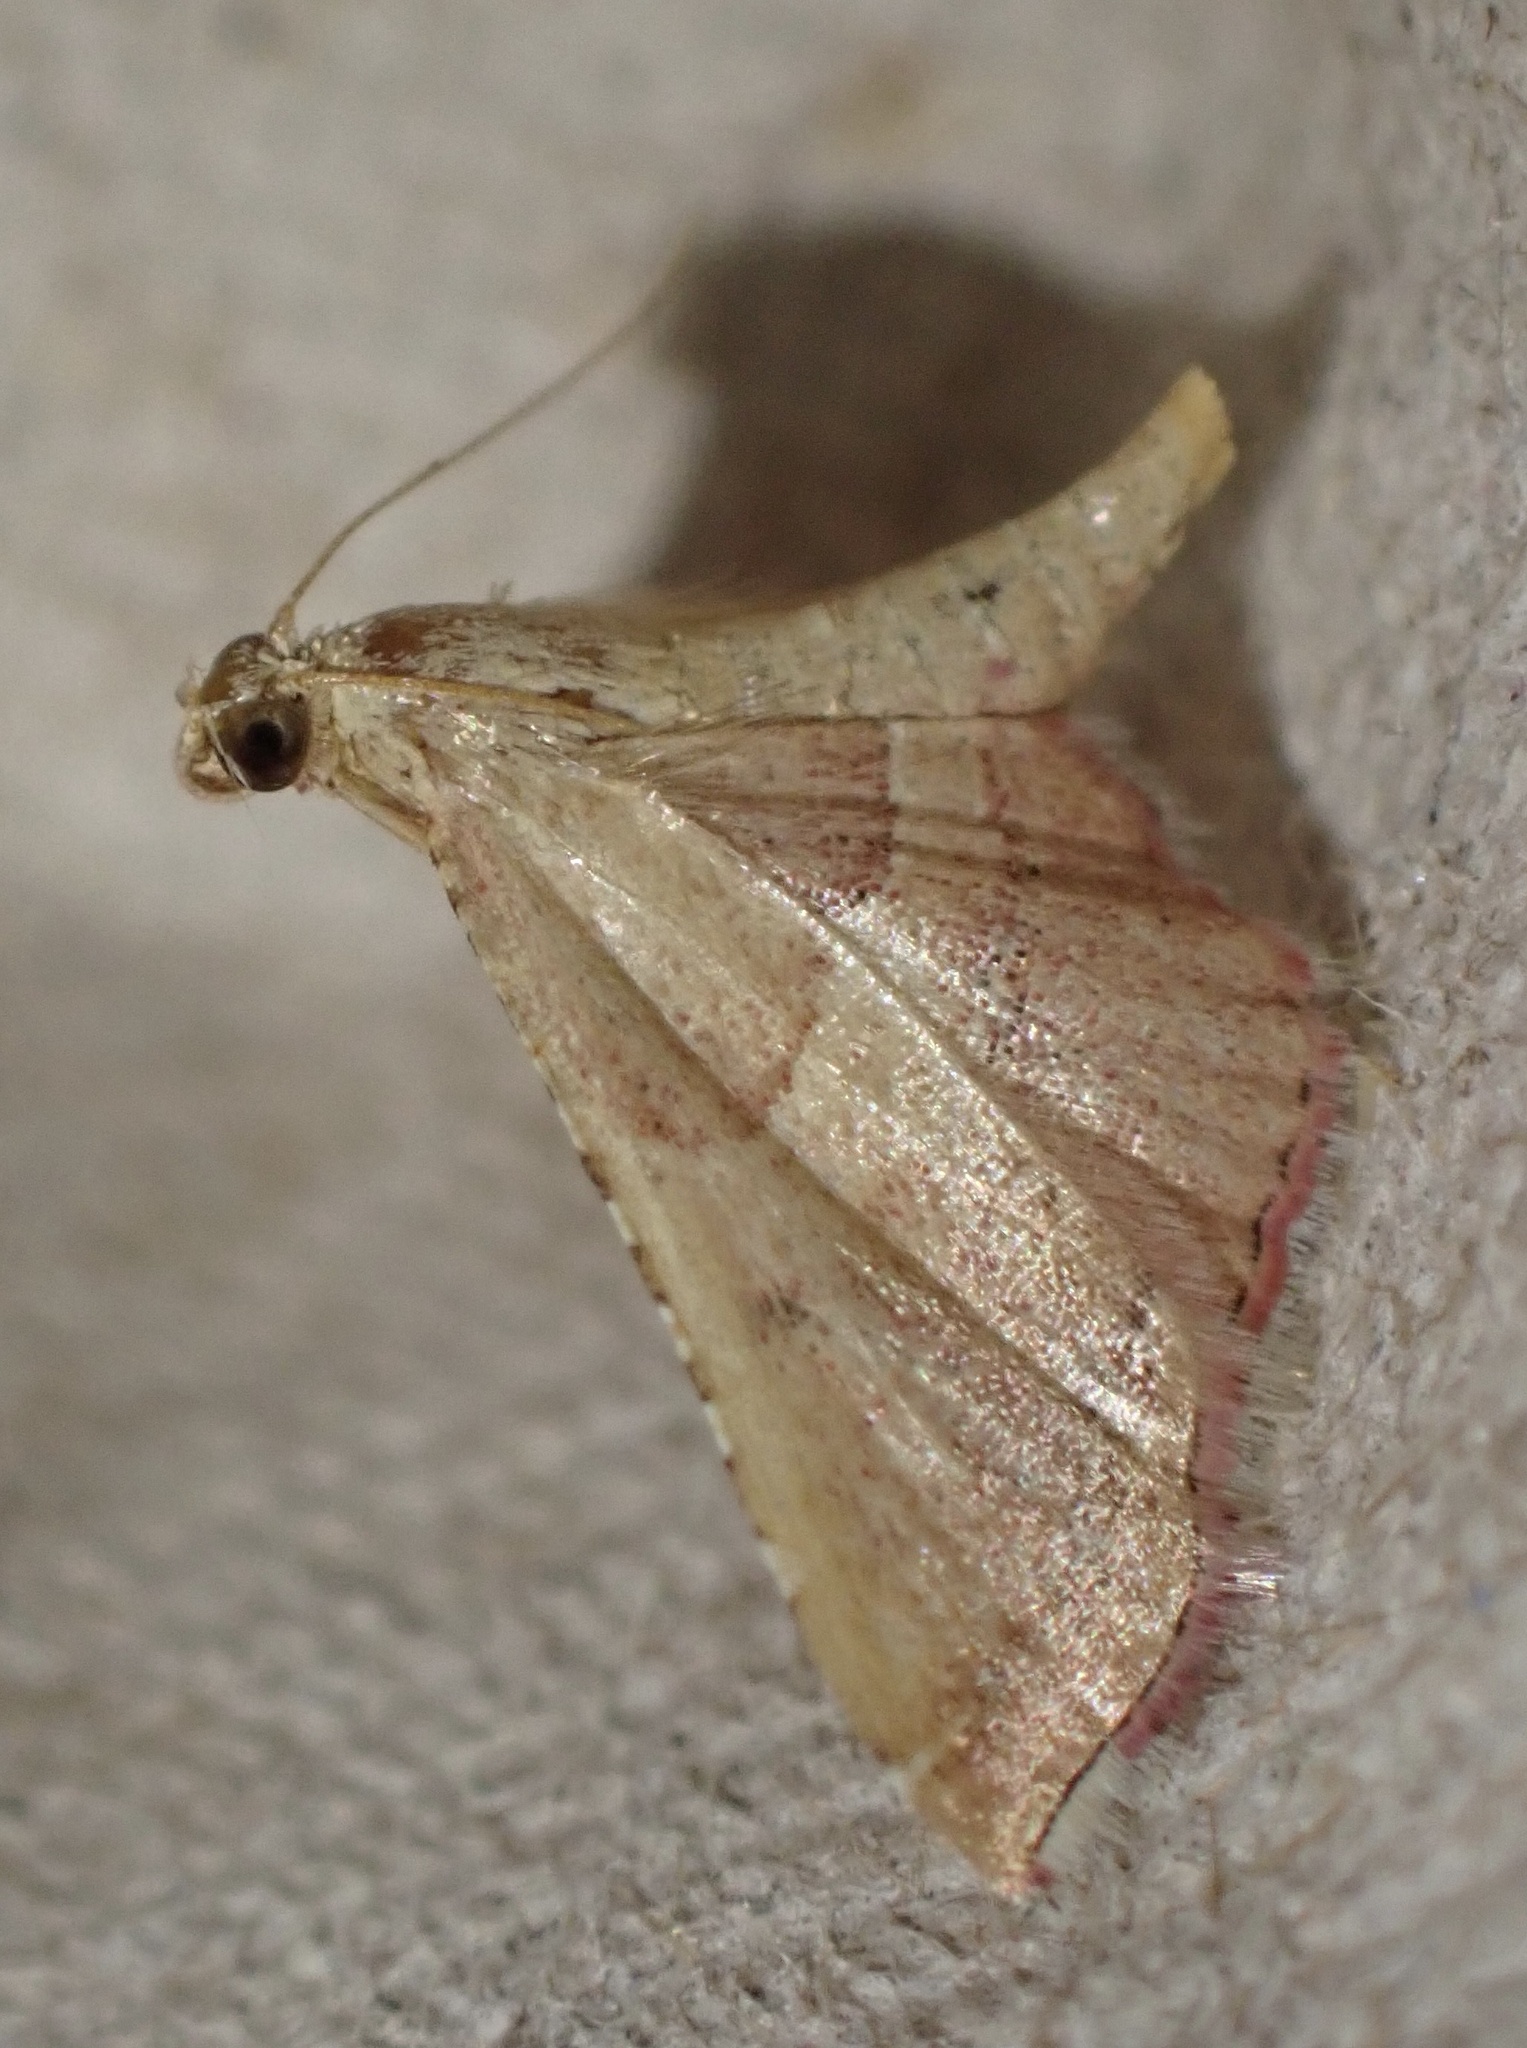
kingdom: Animalia
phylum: Arthropoda
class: Insecta
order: Lepidoptera
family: Pyralidae
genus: Endotricha
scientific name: Endotricha flammealis
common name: Rosy tabby
